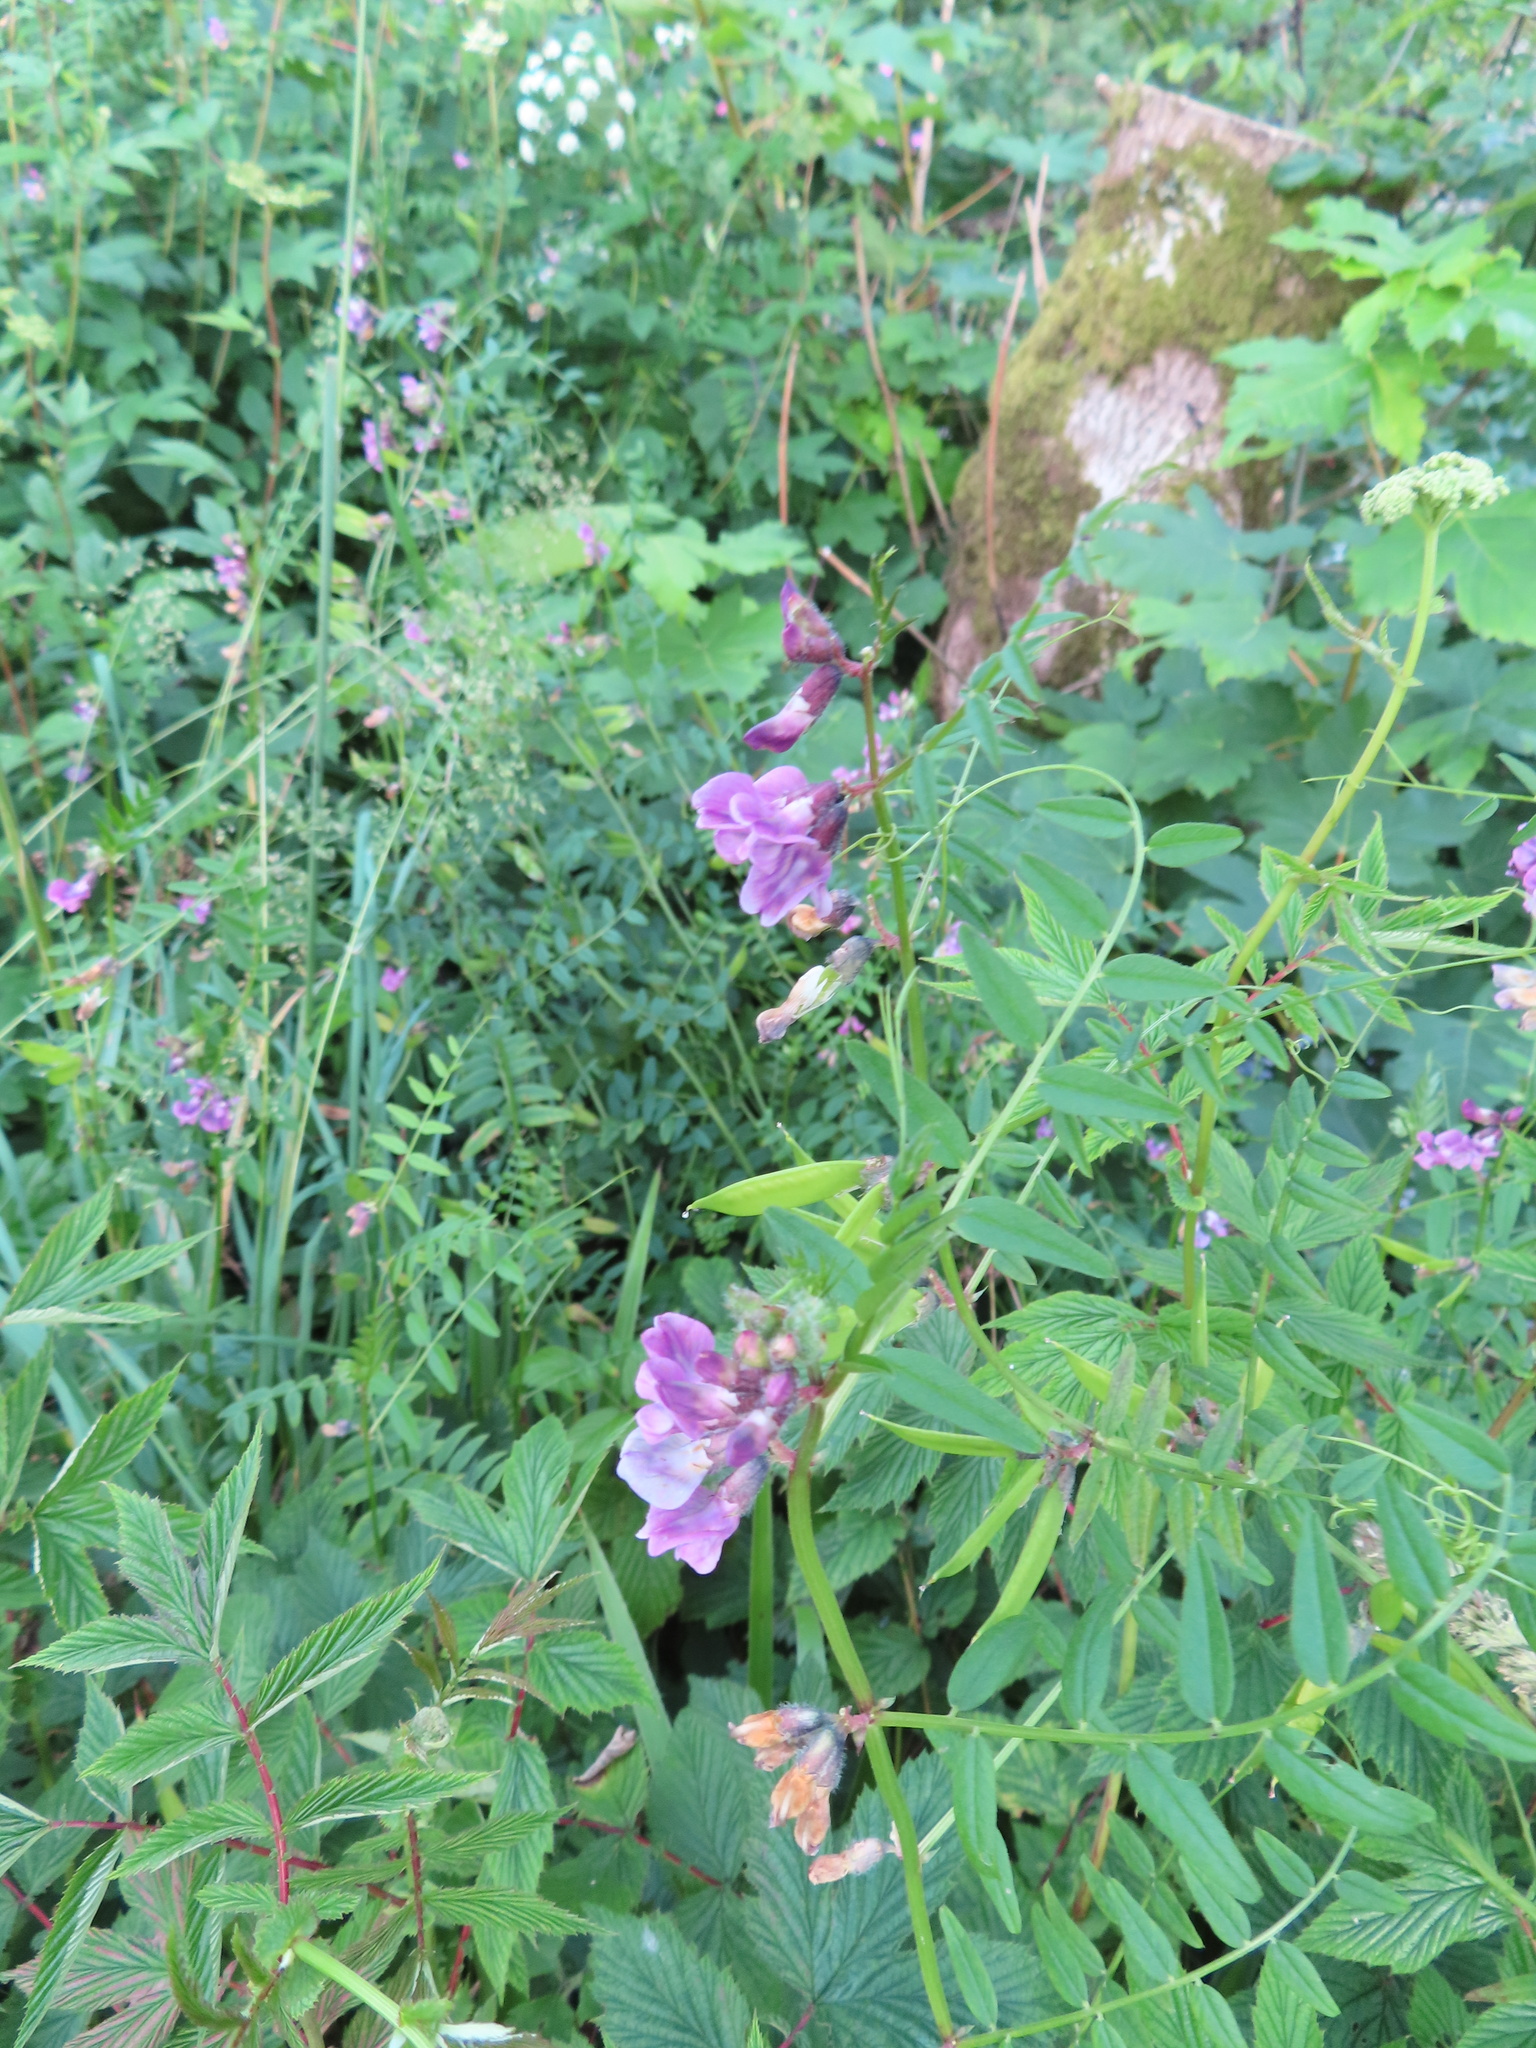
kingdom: Plantae
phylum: Tracheophyta
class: Magnoliopsida
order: Fabales
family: Fabaceae
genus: Vicia
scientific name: Vicia sepium
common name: Bush vetch
